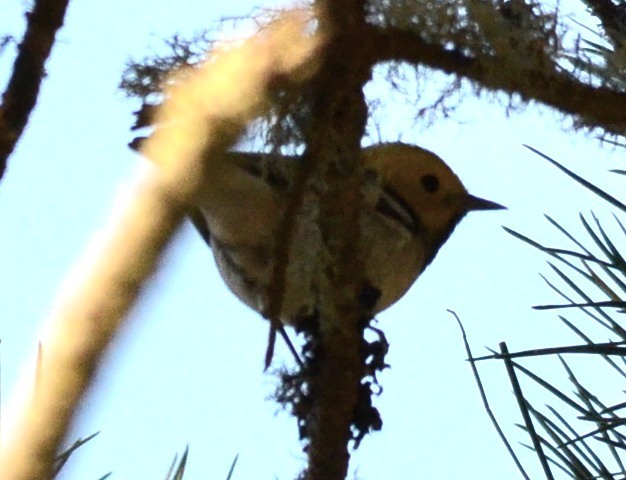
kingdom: Animalia
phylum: Chordata
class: Aves
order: Passeriformes
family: Parulidae
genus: Setophaga
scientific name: Setophaga occidentalis
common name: Hermit warbler
